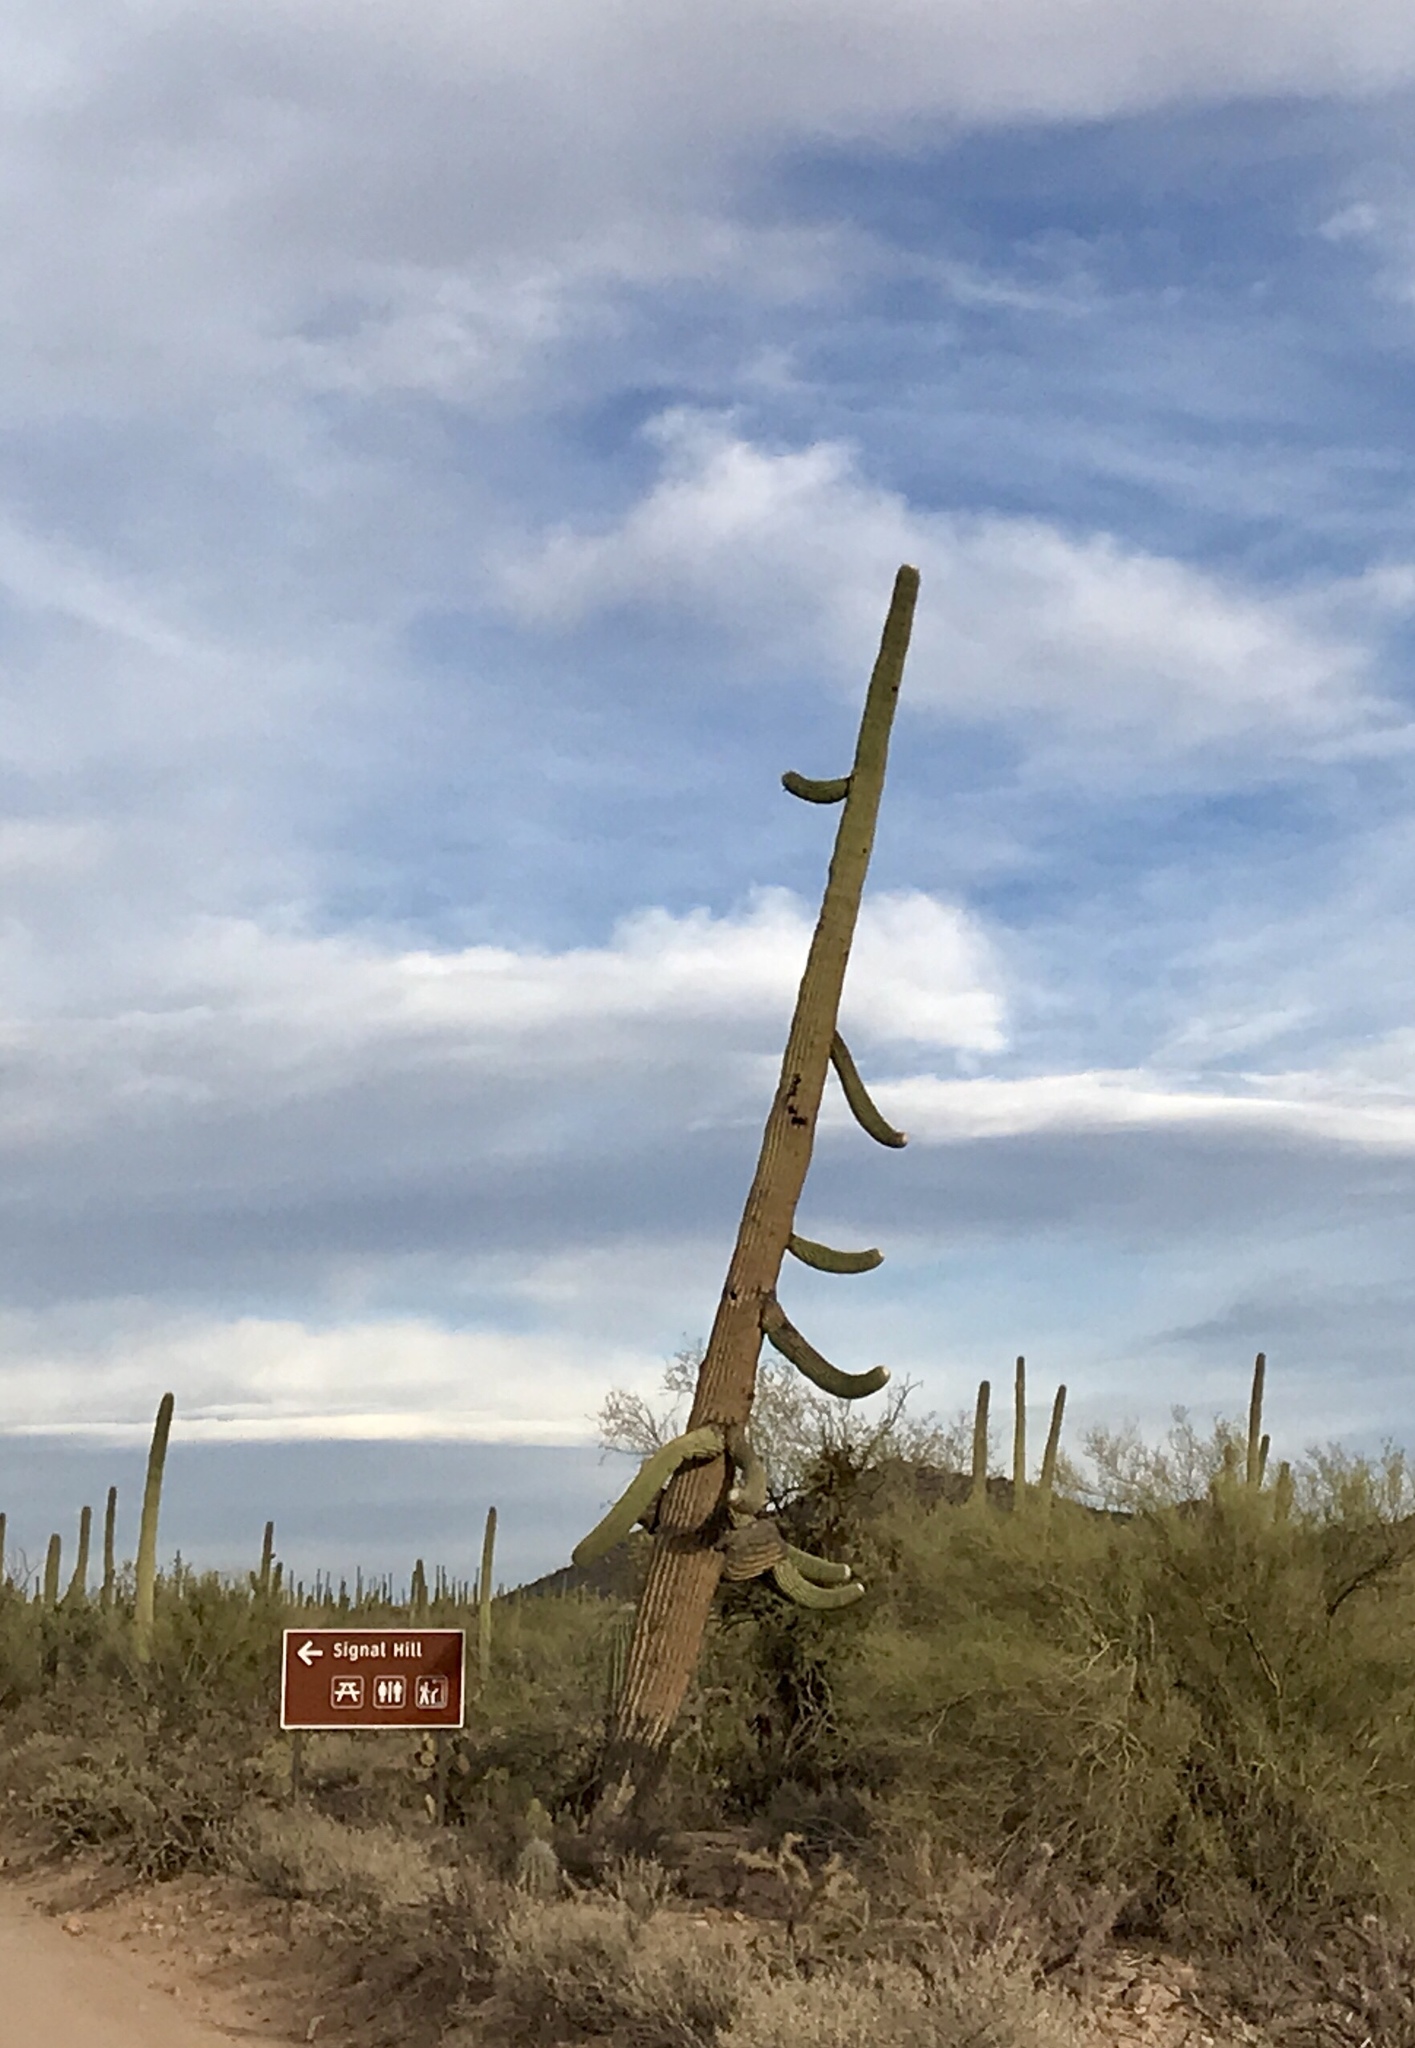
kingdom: Plantae
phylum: Tracheophyta
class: Magnoliopsida
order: Caryophyllales
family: Cactaceae
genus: Carnegiea
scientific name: Carnegiea gigantea
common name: Saguaro
